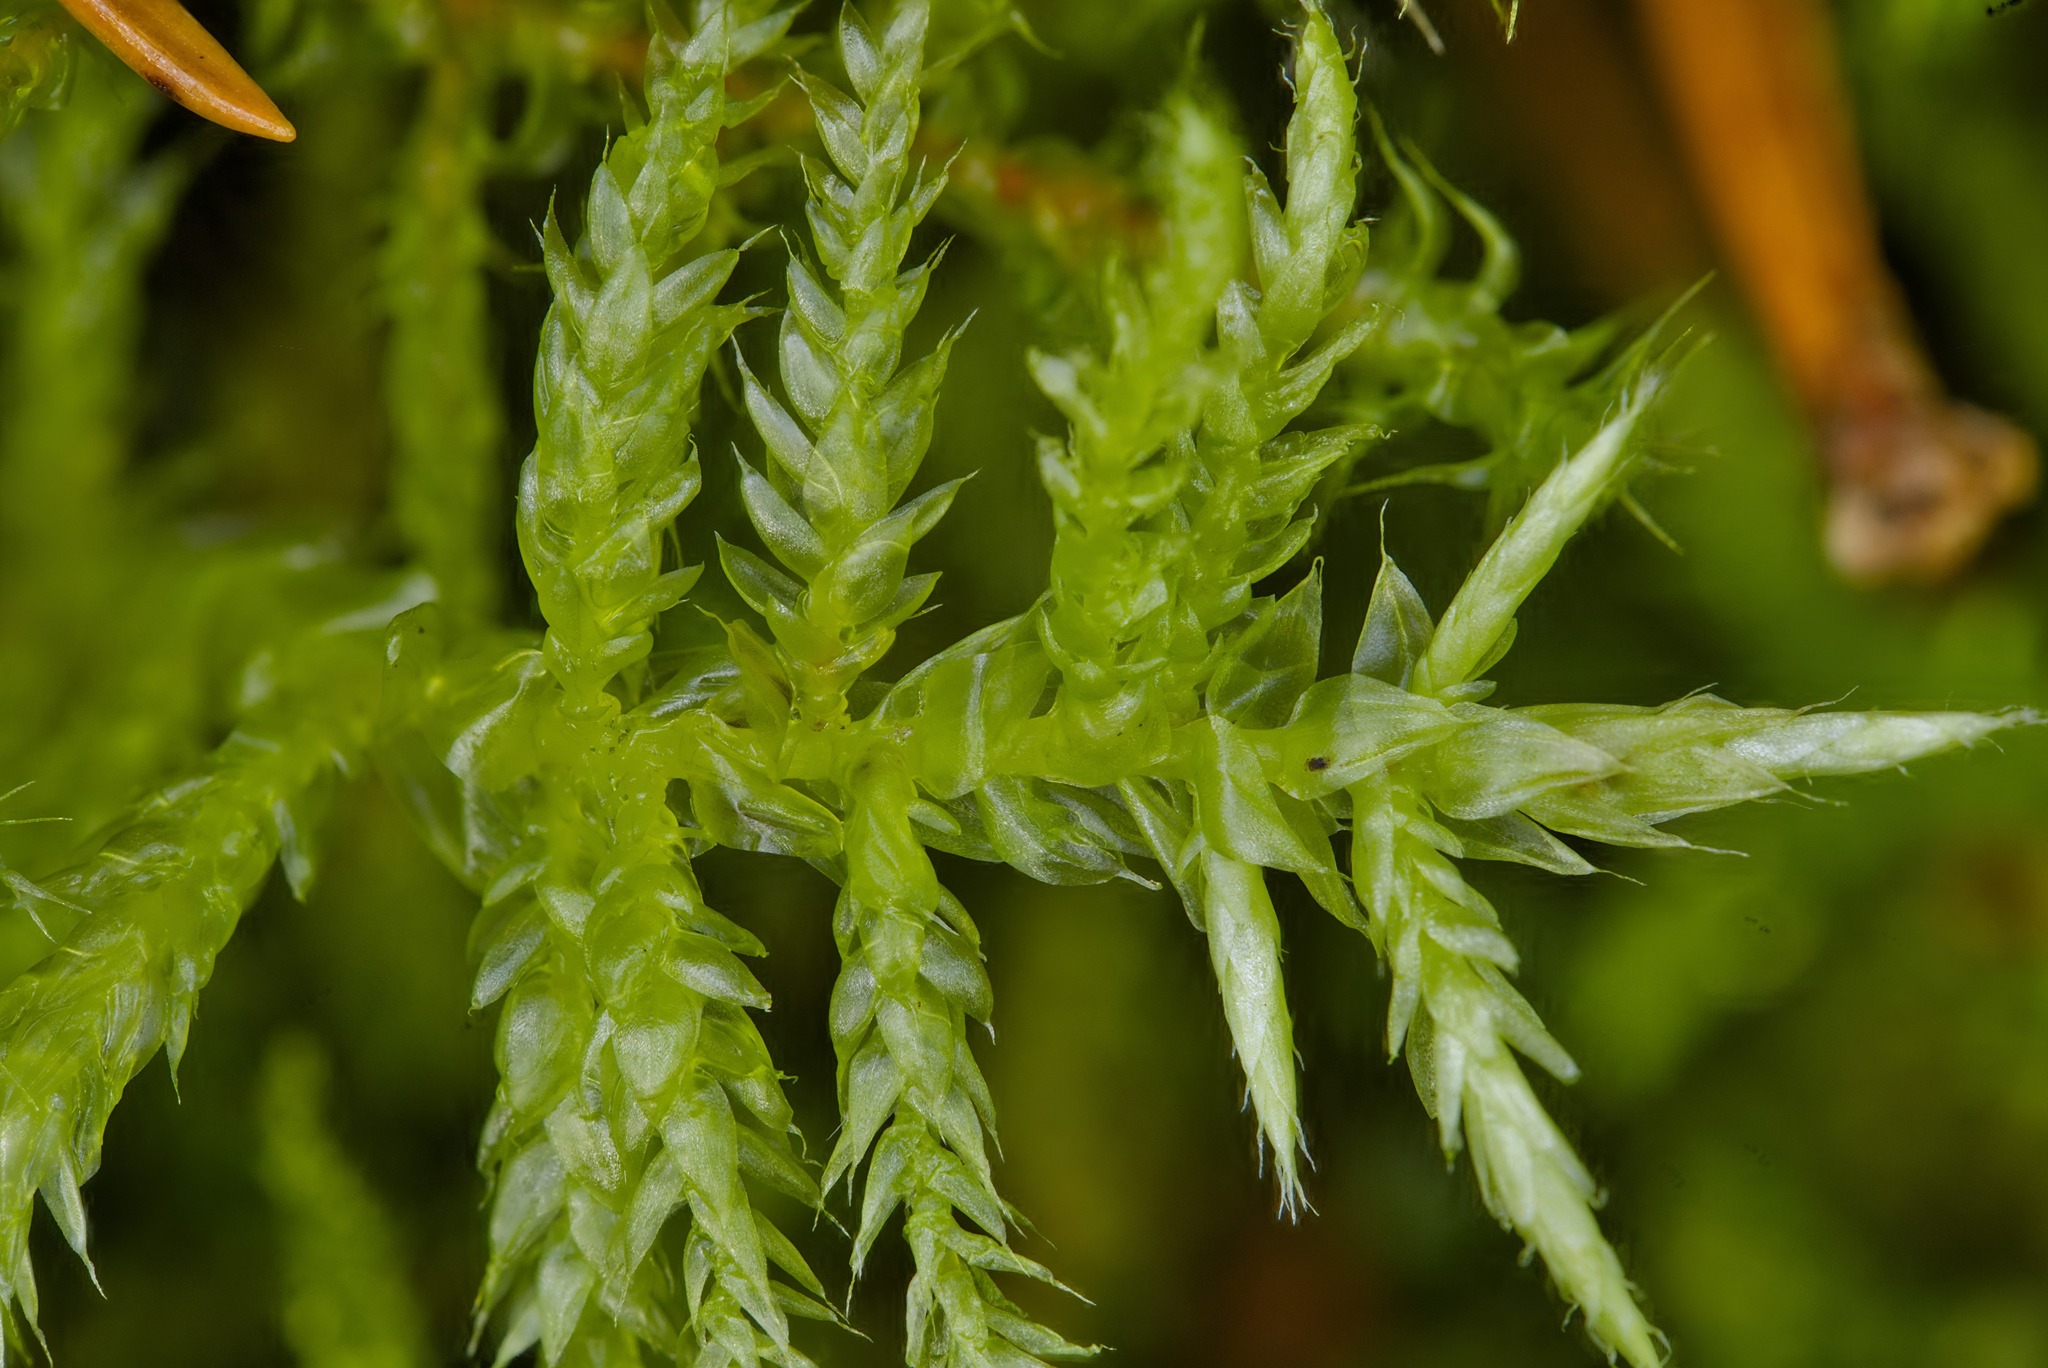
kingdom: Plantae
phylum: Bryophyta
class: Bryopsida
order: Hypnales
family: Brachytheciaceae
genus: Cirriphyllum
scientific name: Cirriphyllum piliferum
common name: Hair-pointed moss
